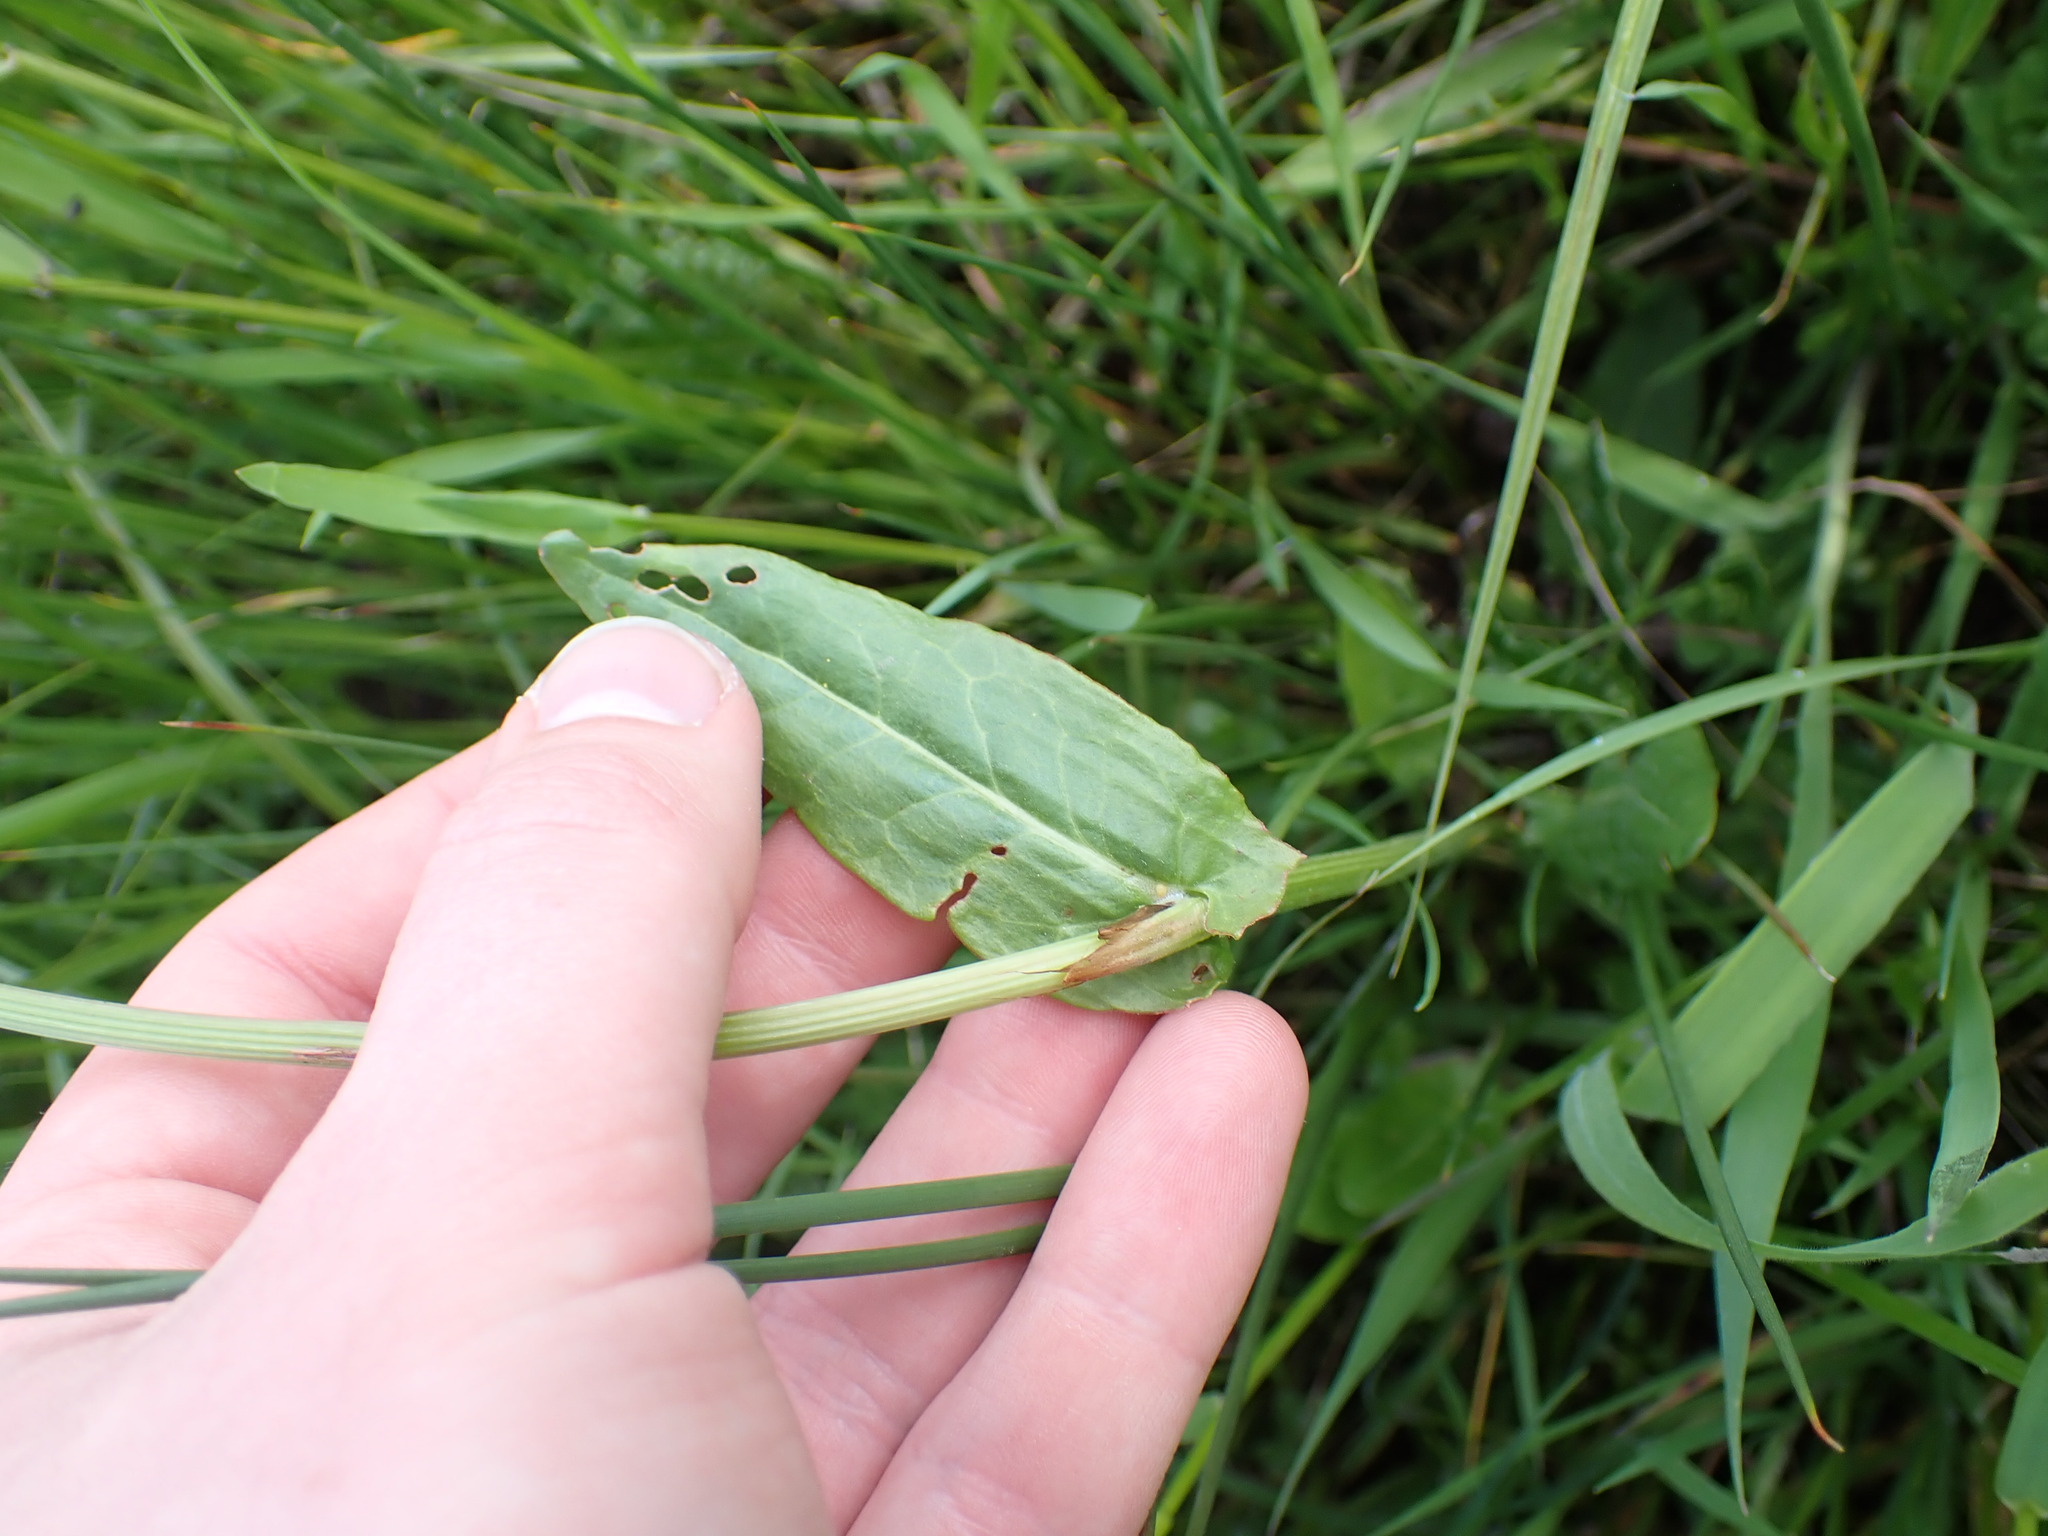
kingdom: Plantae
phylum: Tracheophyta
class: Magnoliopsida
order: Caryophyllales
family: Polygonaceae
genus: Rumex
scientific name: Rumex acetosa
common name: Garden sorrel
